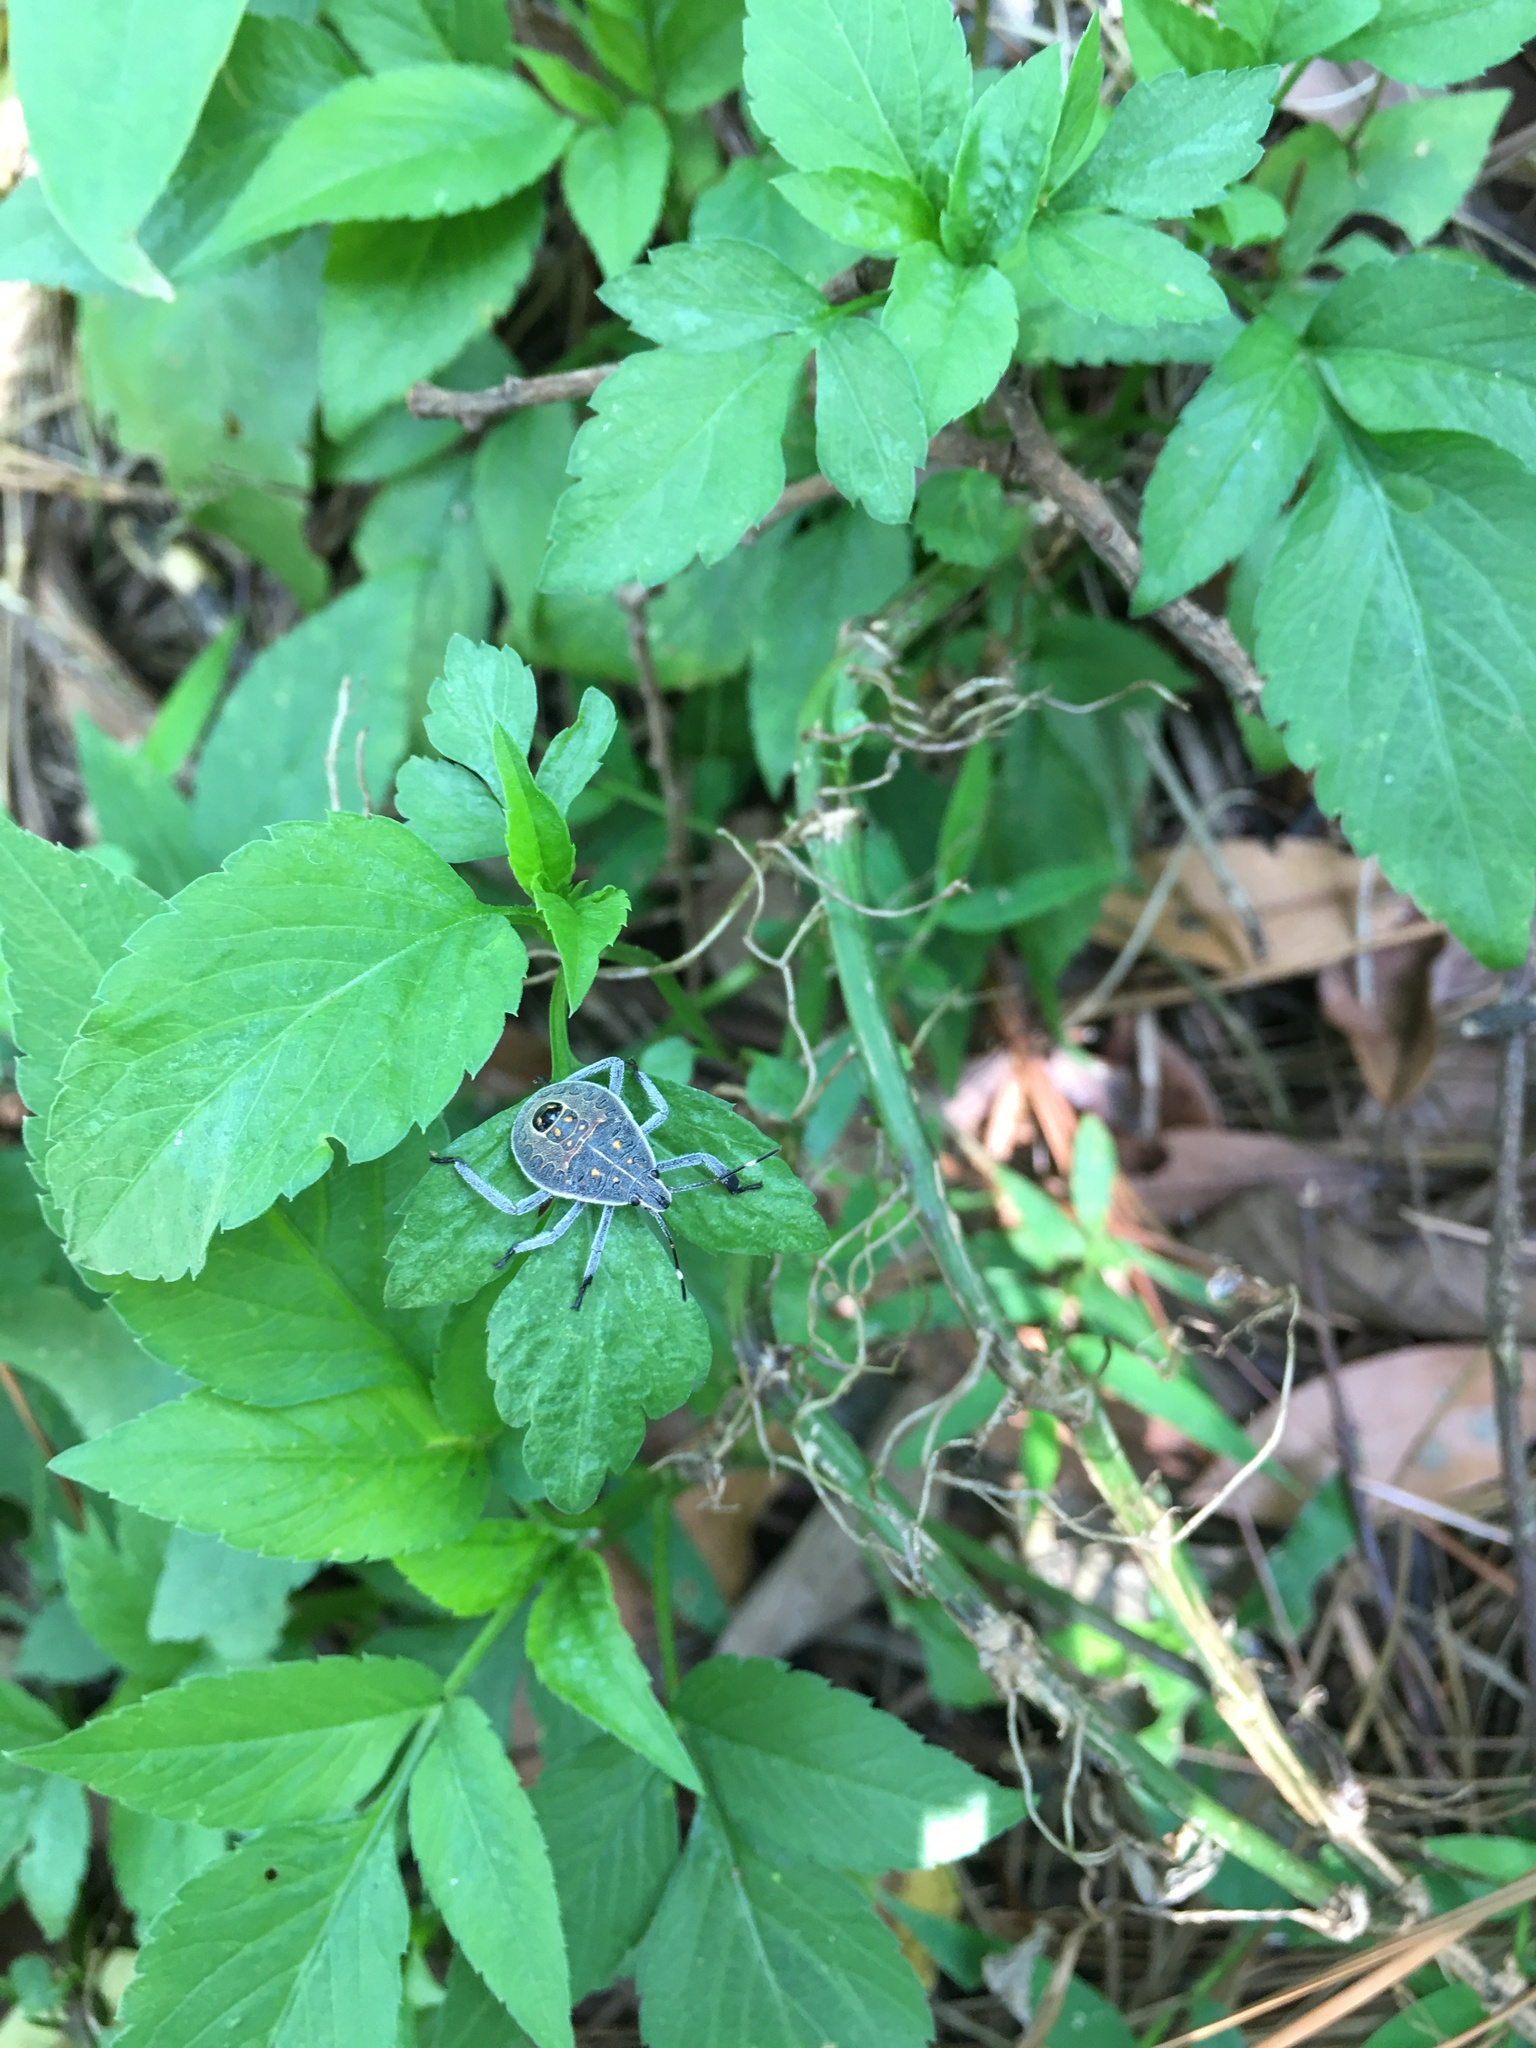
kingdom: Animalia
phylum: Arthropoda
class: Insecta
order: Hemiptera
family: Pentatomidae
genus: Erthesina
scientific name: Erthesina fullo
